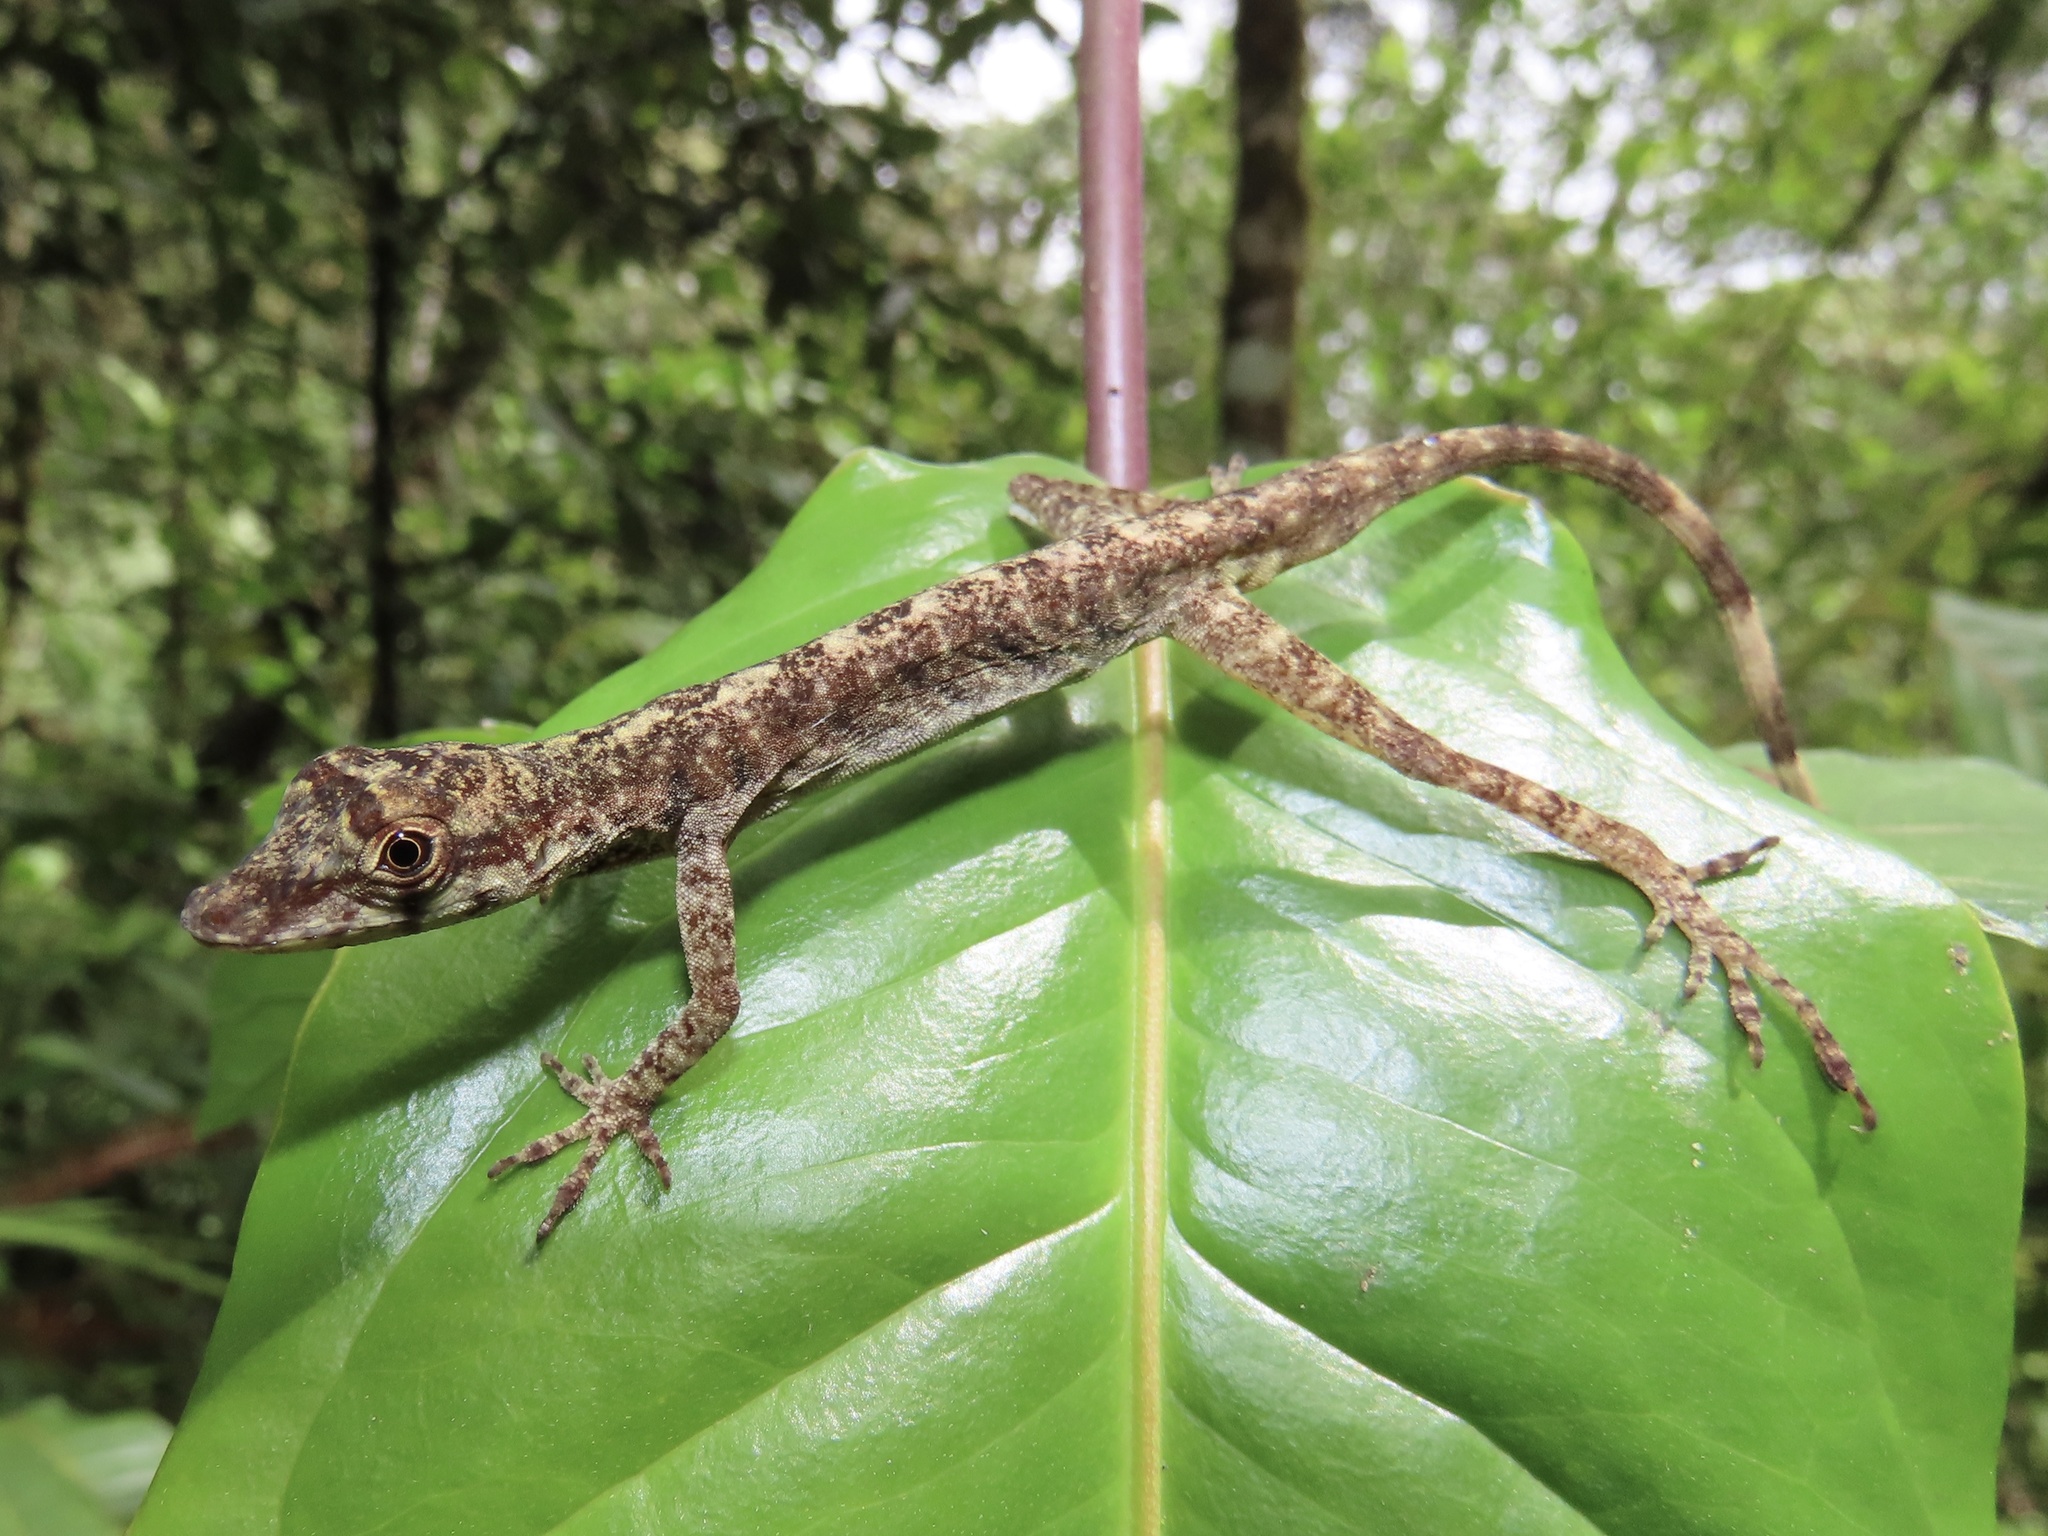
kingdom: Animalia
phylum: Chordata
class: Squamata
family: Dactyloidae
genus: Anolis
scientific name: Anolis maculiventris
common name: Blotchbelly anole
